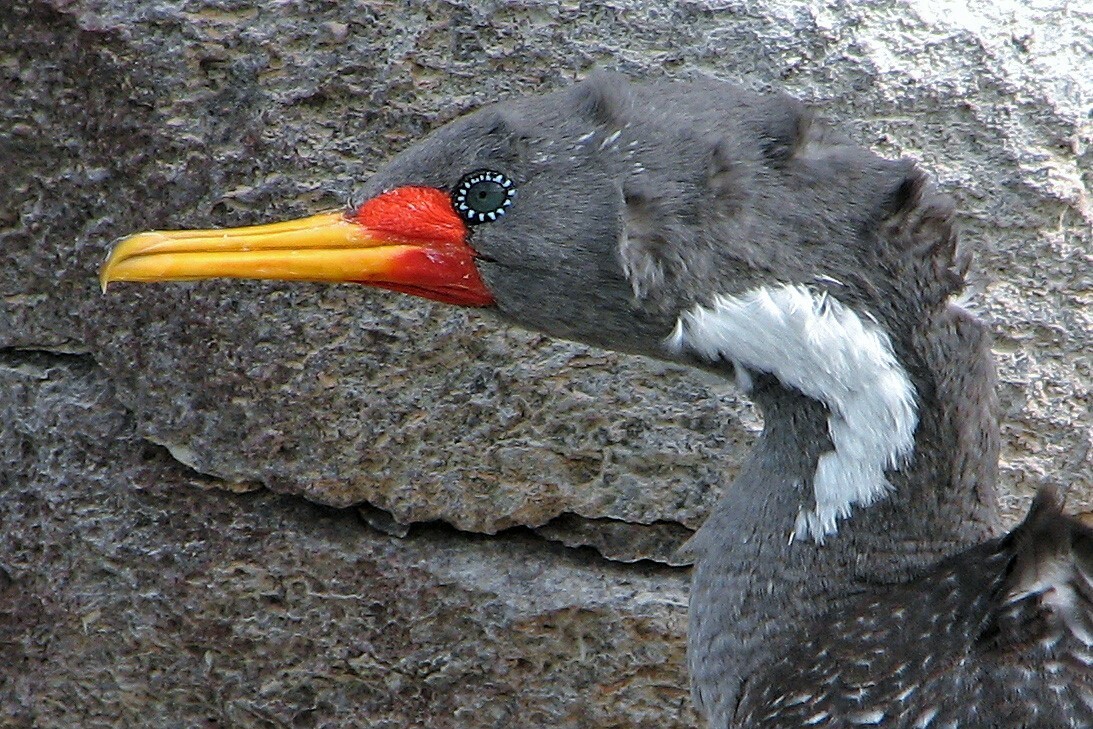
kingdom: Animalia
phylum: Chordata
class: Aves
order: Suliformes
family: Phalacrocoracidae
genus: Phalacrocorax
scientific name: Phalacrocorax gaimardi
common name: Red-legged cormorant
